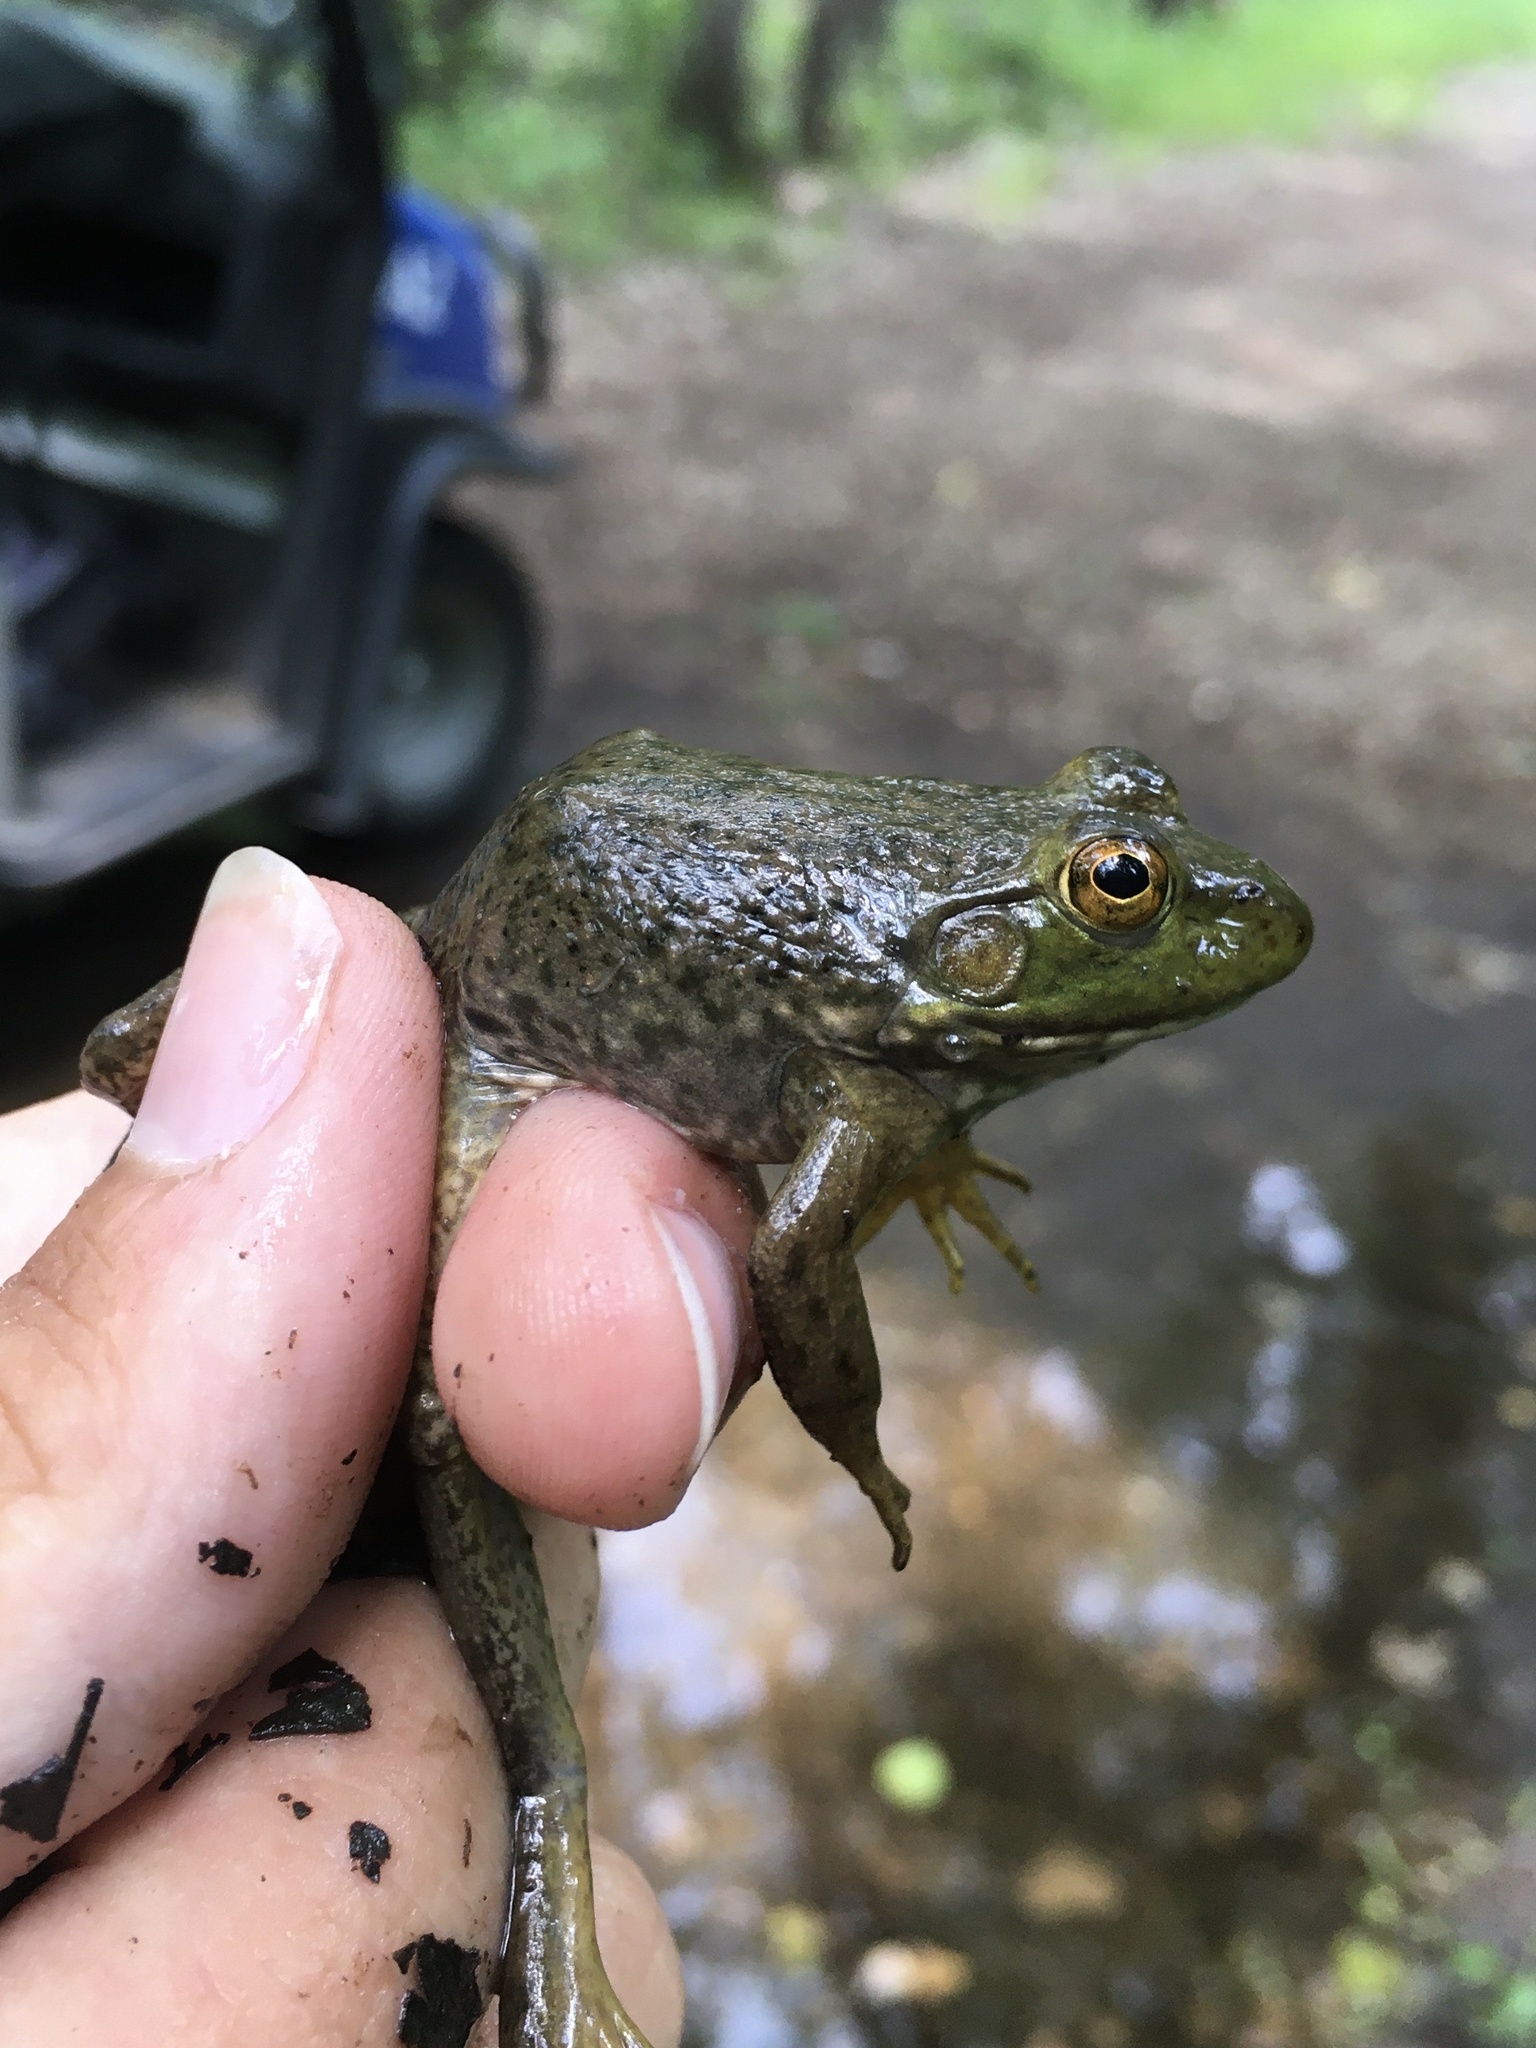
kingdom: Animalia
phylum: Chordata
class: Amphibia
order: Anura
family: Ranidae
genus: Lithobates
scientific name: Lithobates catesbeianus
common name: American bullfrog
